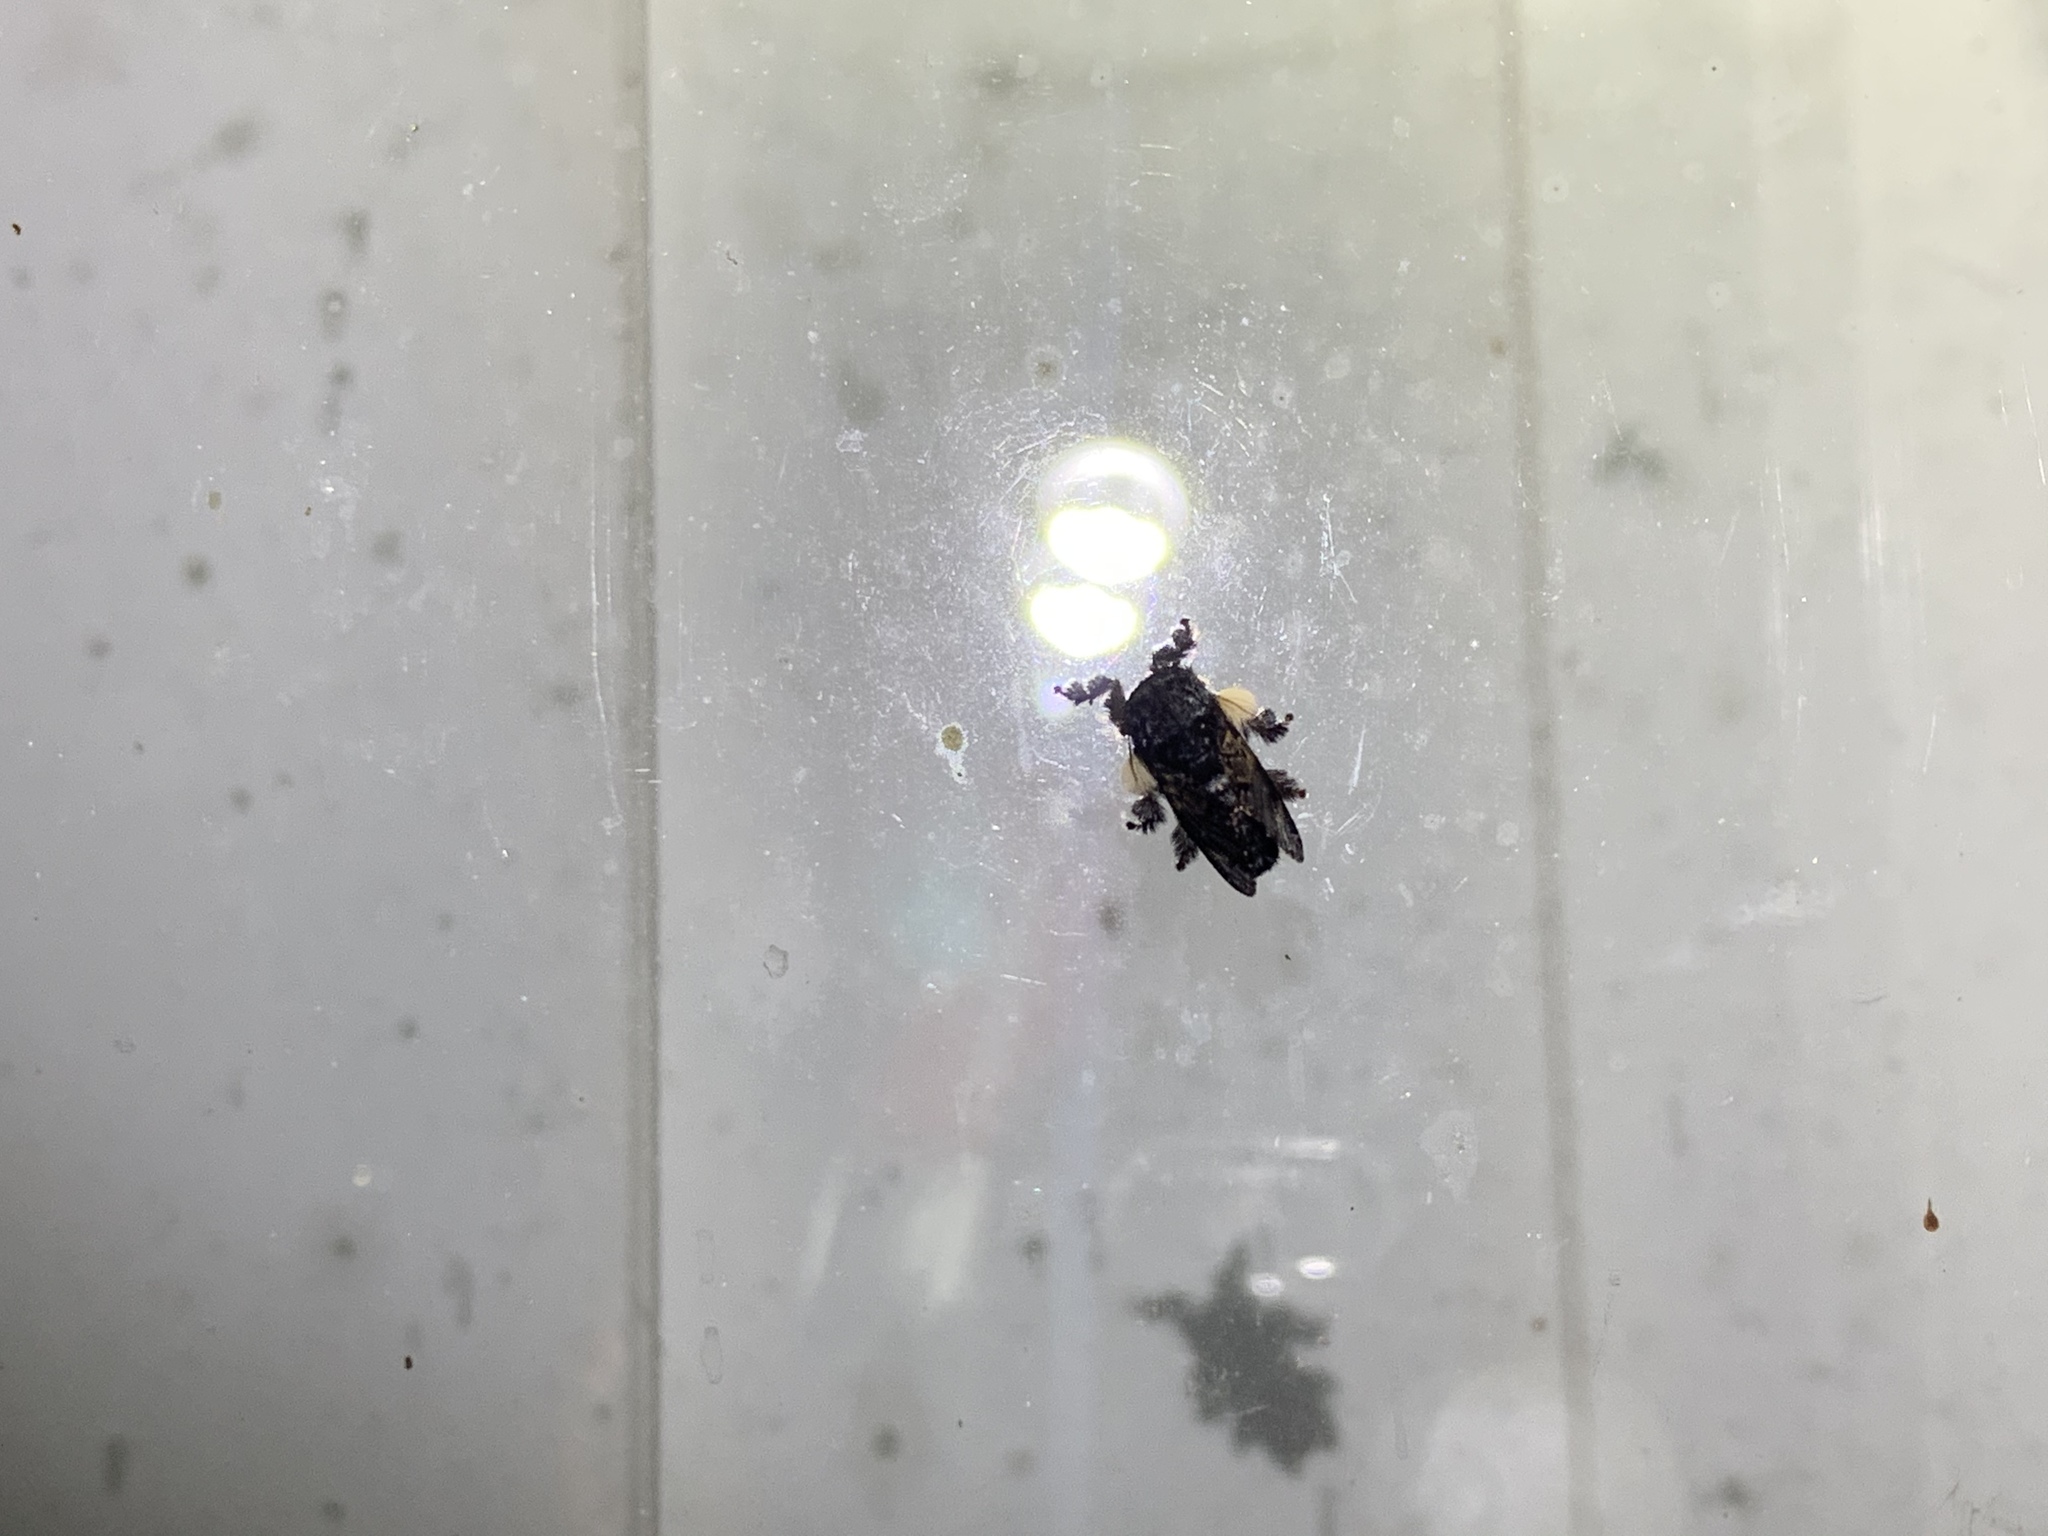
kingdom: Animalia
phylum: Arthropoda
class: Insecta
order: Lepidoptera
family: Limacodidae
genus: Phobetron
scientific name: Phobetron pithecium
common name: Hag moth
